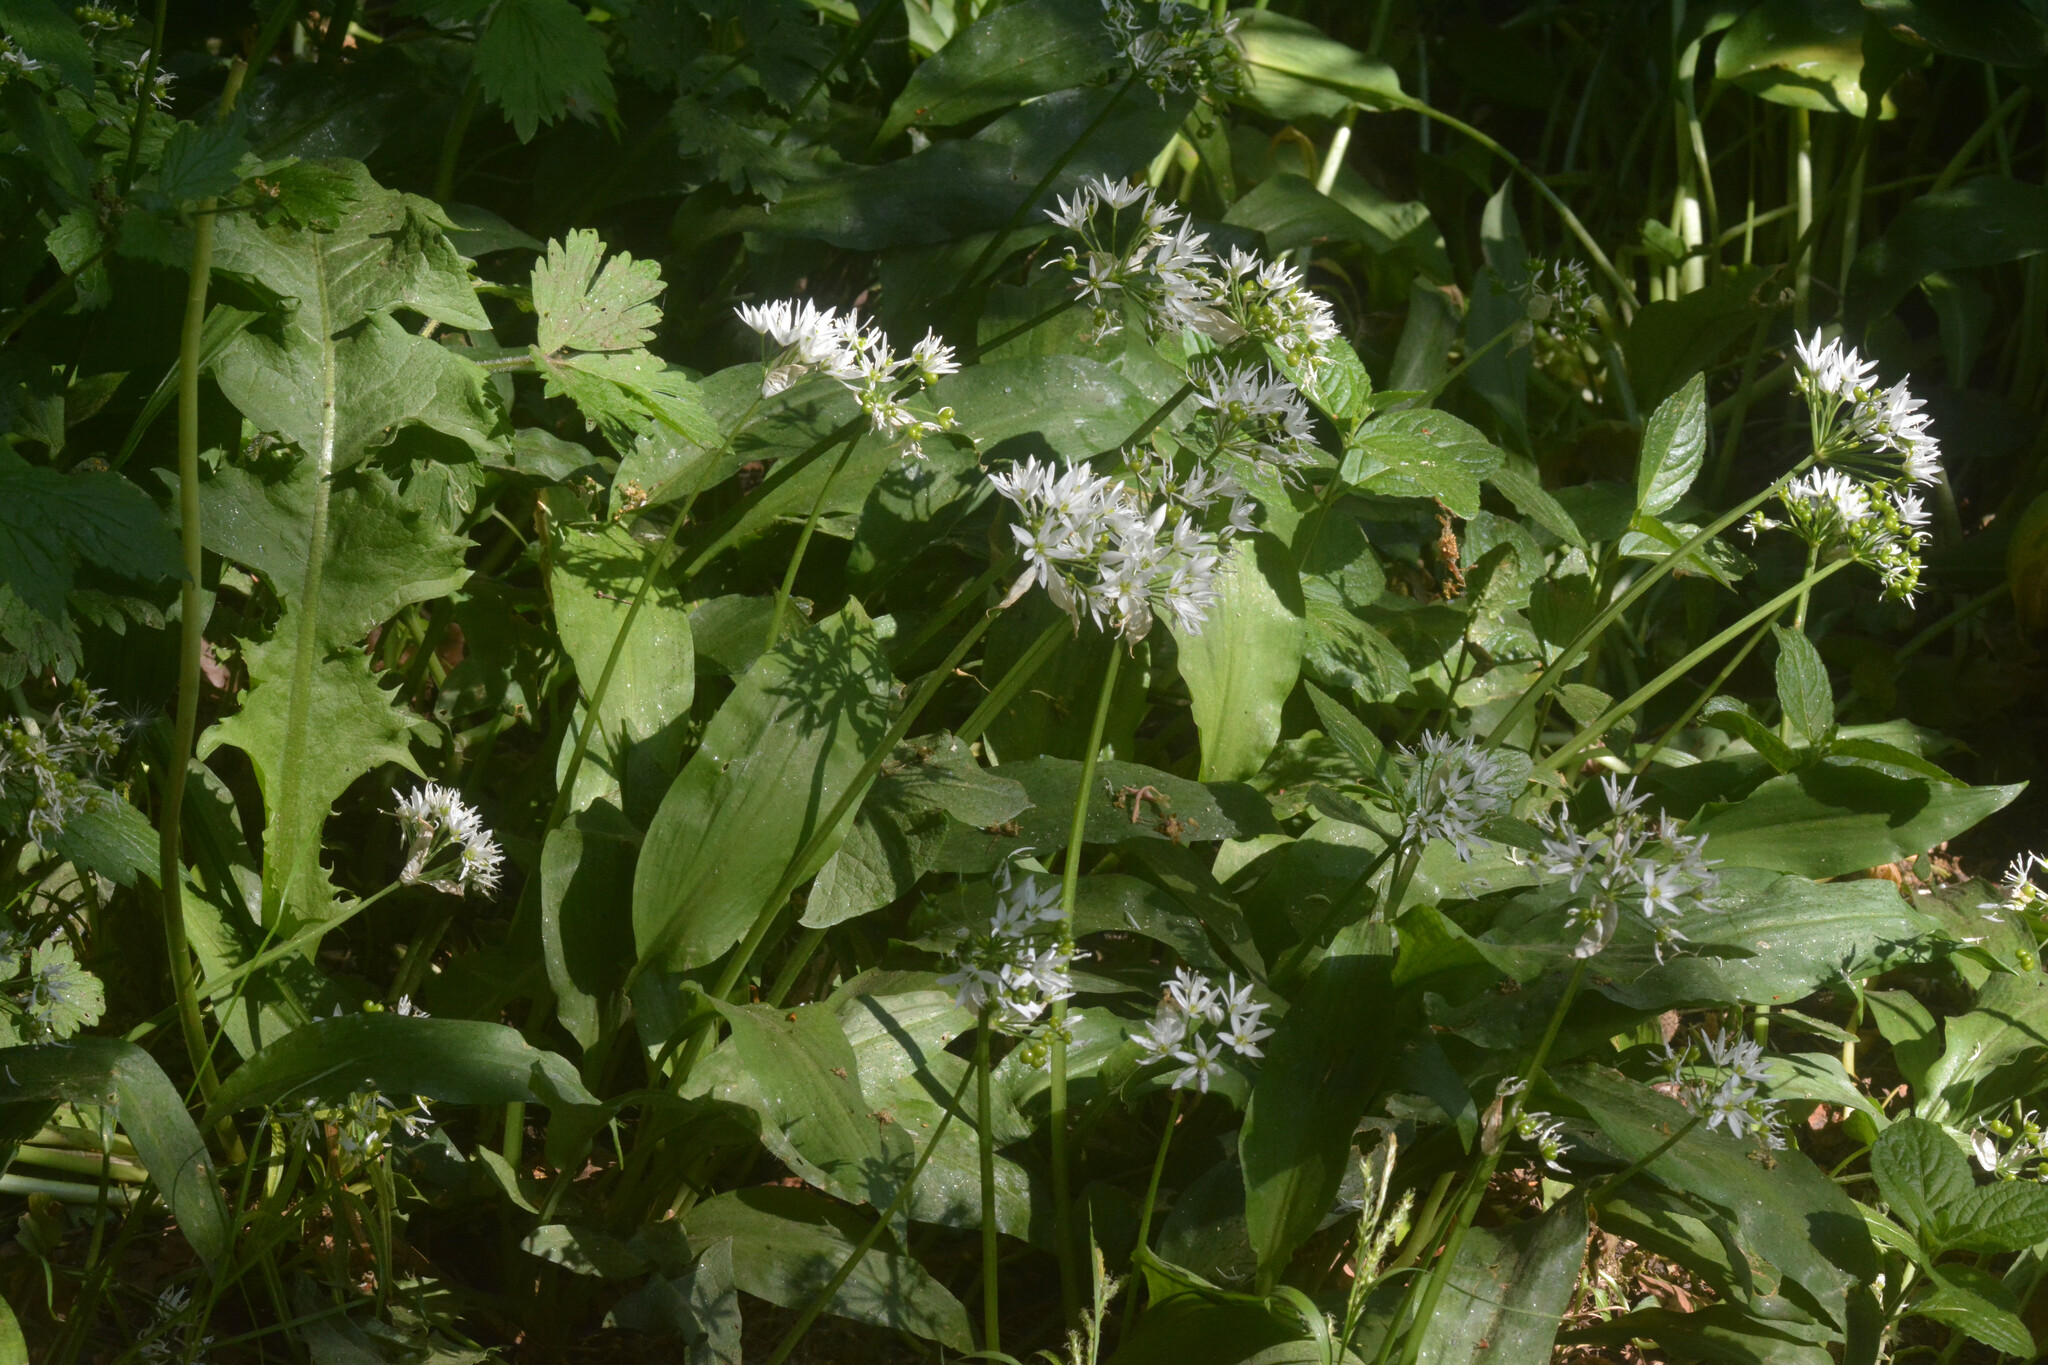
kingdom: Plantae
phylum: Tracheophyta
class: Liliopsida
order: Asparagales
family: Amaryllidaceae
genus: Allium
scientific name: Allium ursinum
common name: Ramsons
